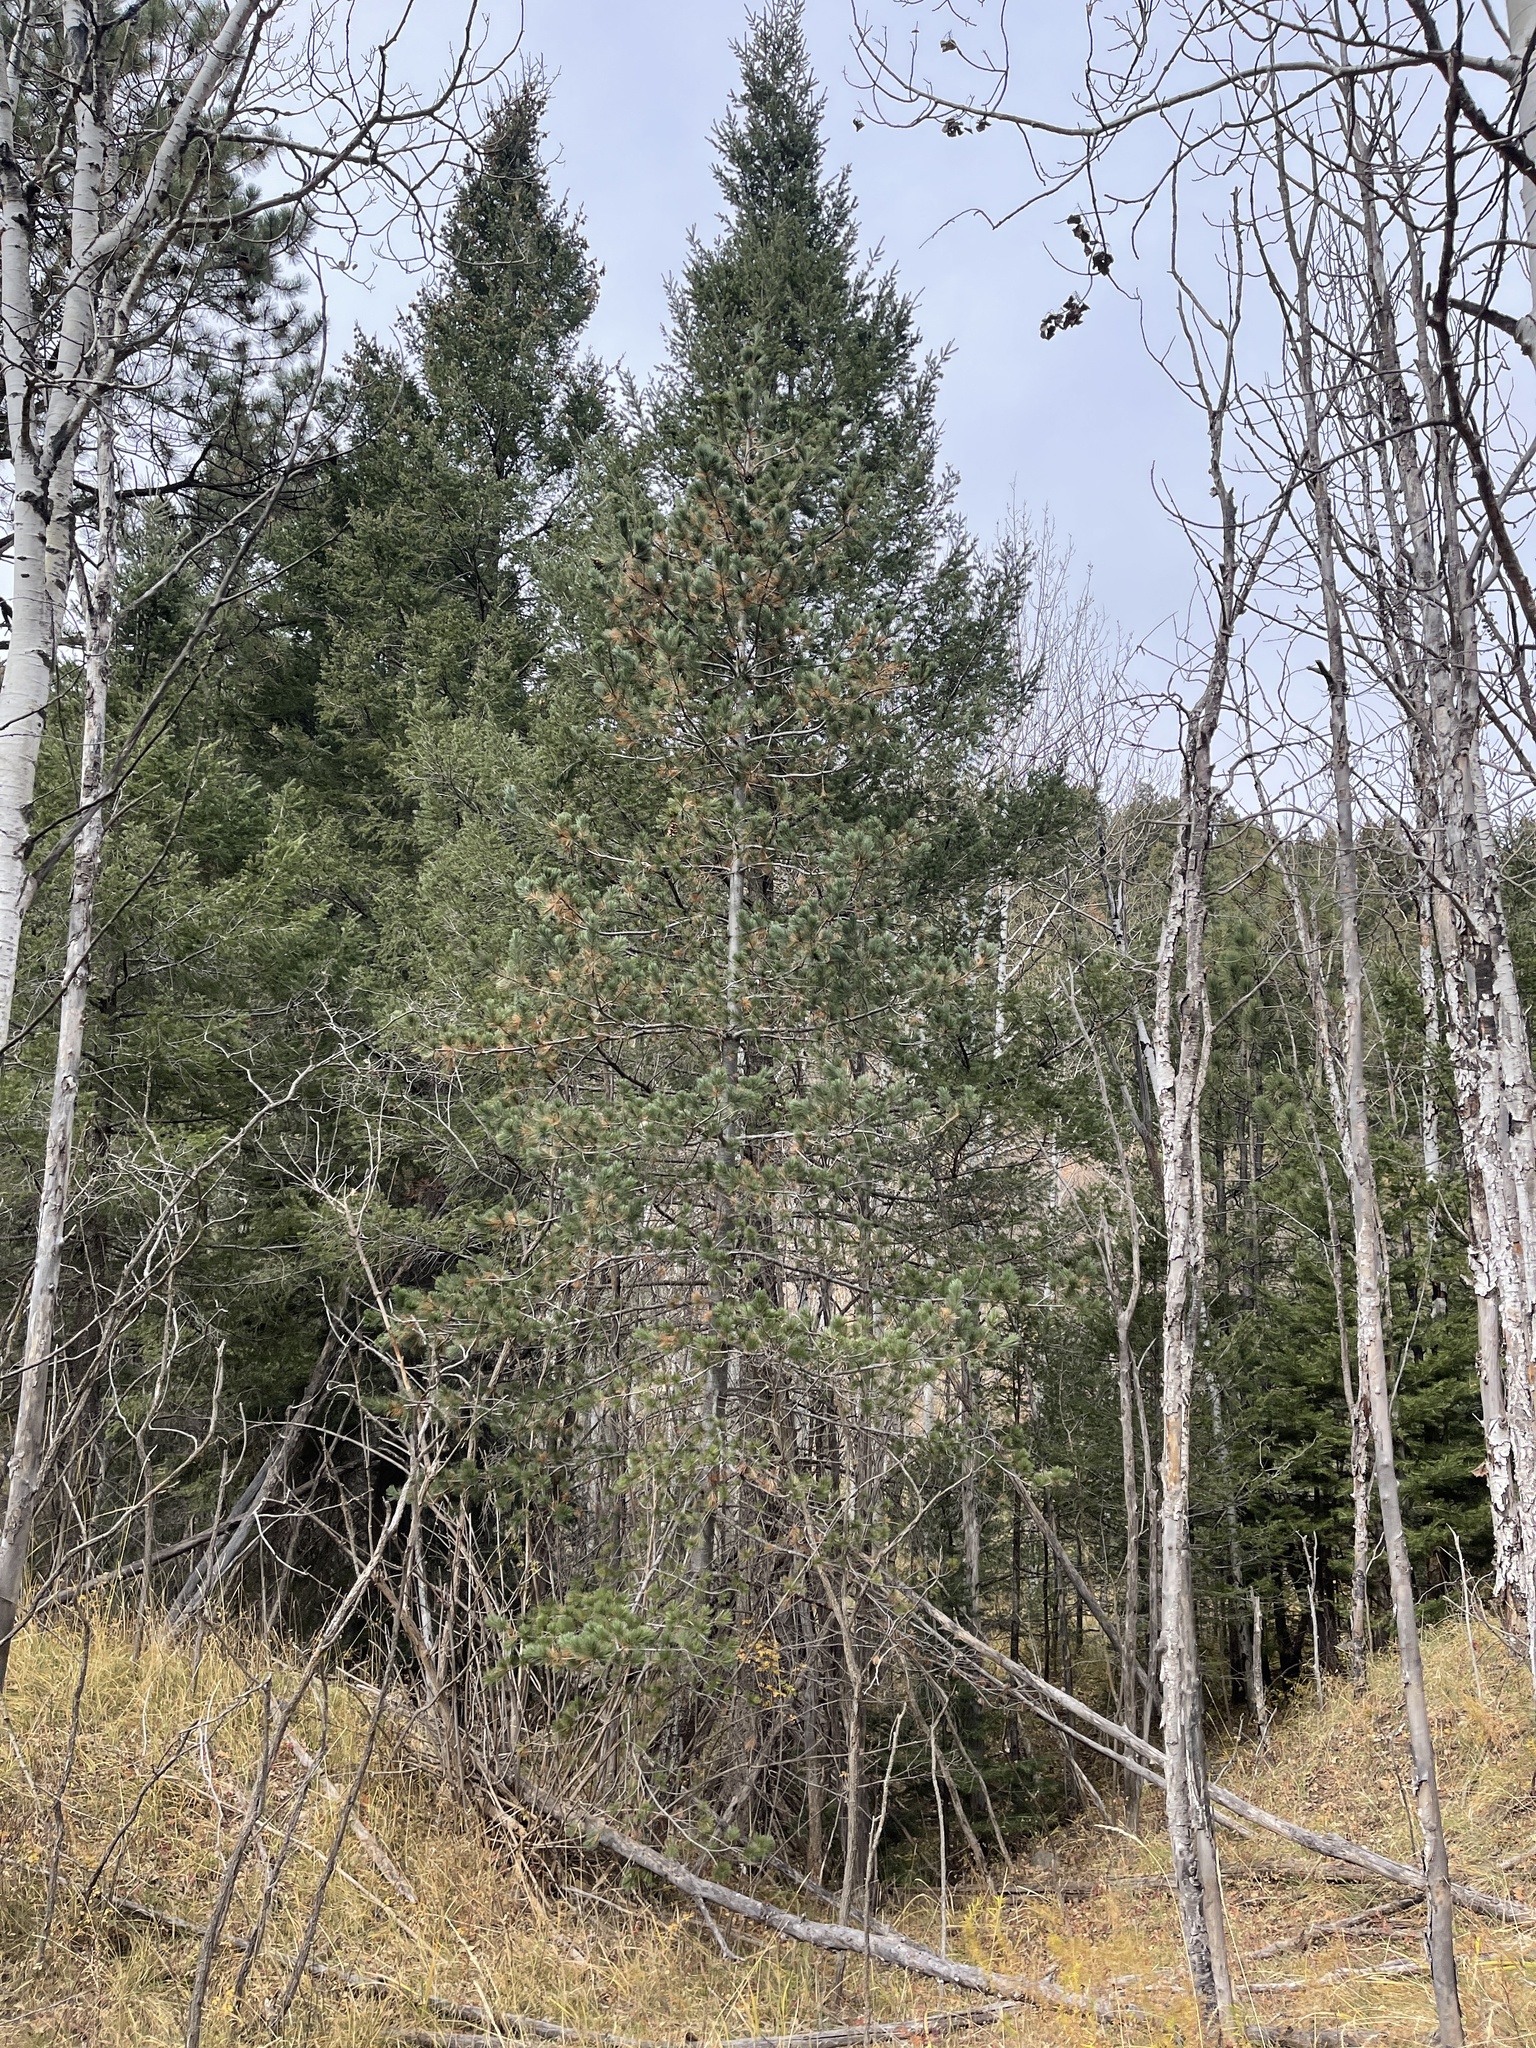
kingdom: Plantae
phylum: Tracheophyta
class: Pinopsida
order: Pinales
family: Pinaceae
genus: Pinus
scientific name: Pinus strobiformis
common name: Southwestern white pine
